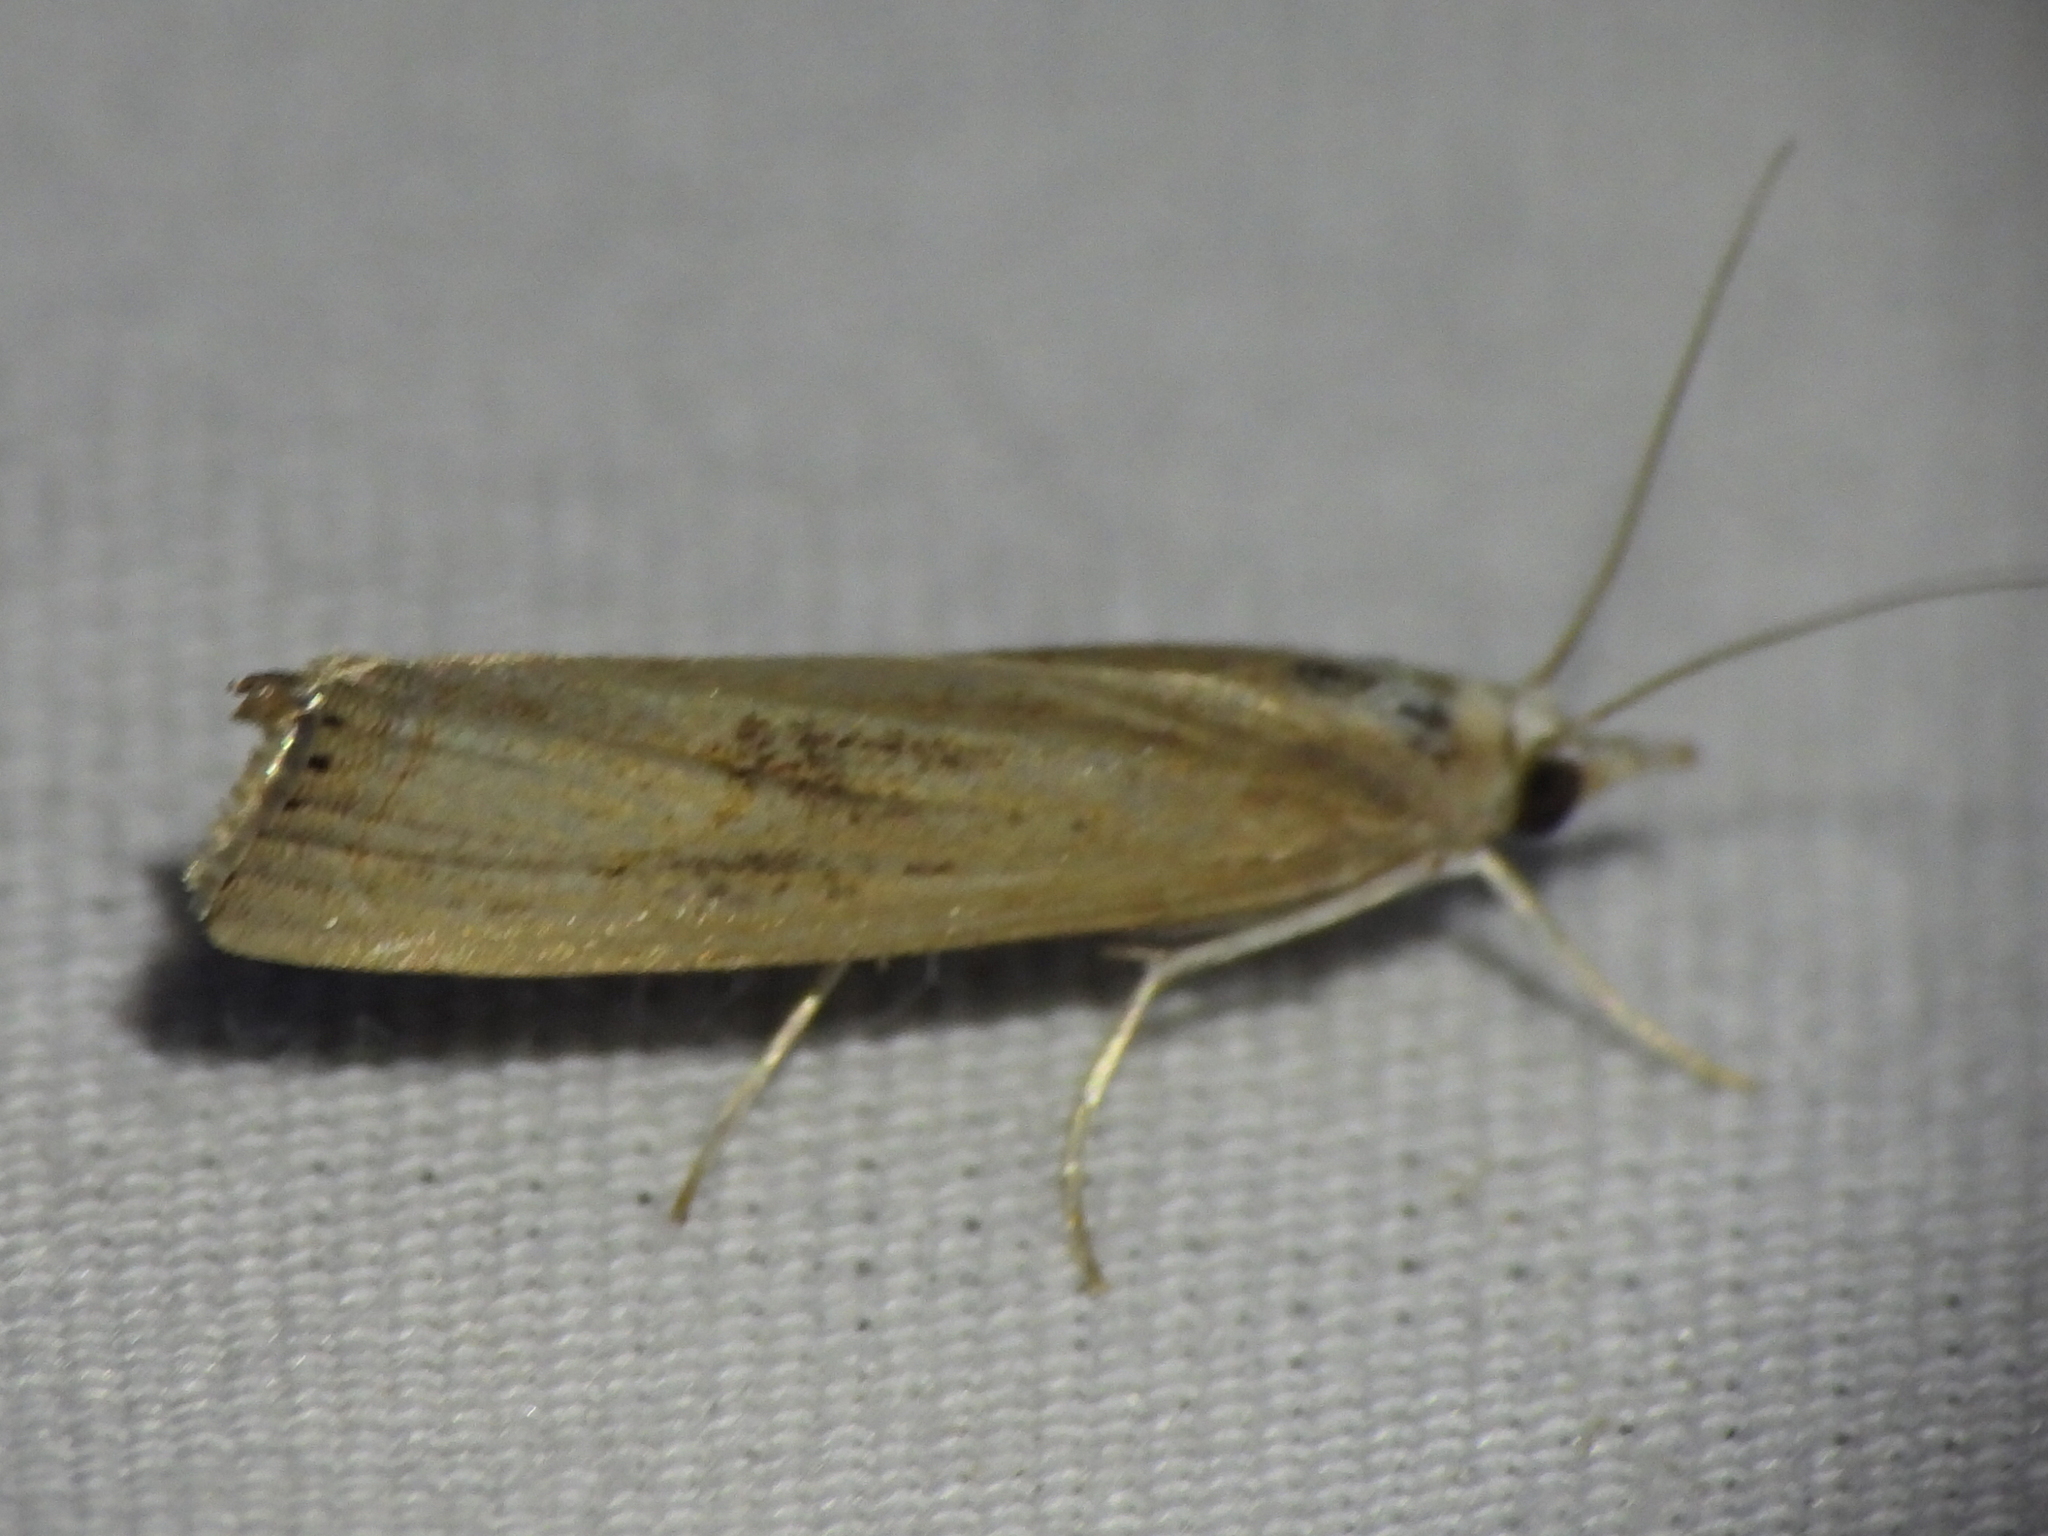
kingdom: Animalia
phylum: Arthropoda
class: Insecta
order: Lepidoptera
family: Crambidae
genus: Parapediasia
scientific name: Parapediasia teterellus
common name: Bluegrass webworm moth
